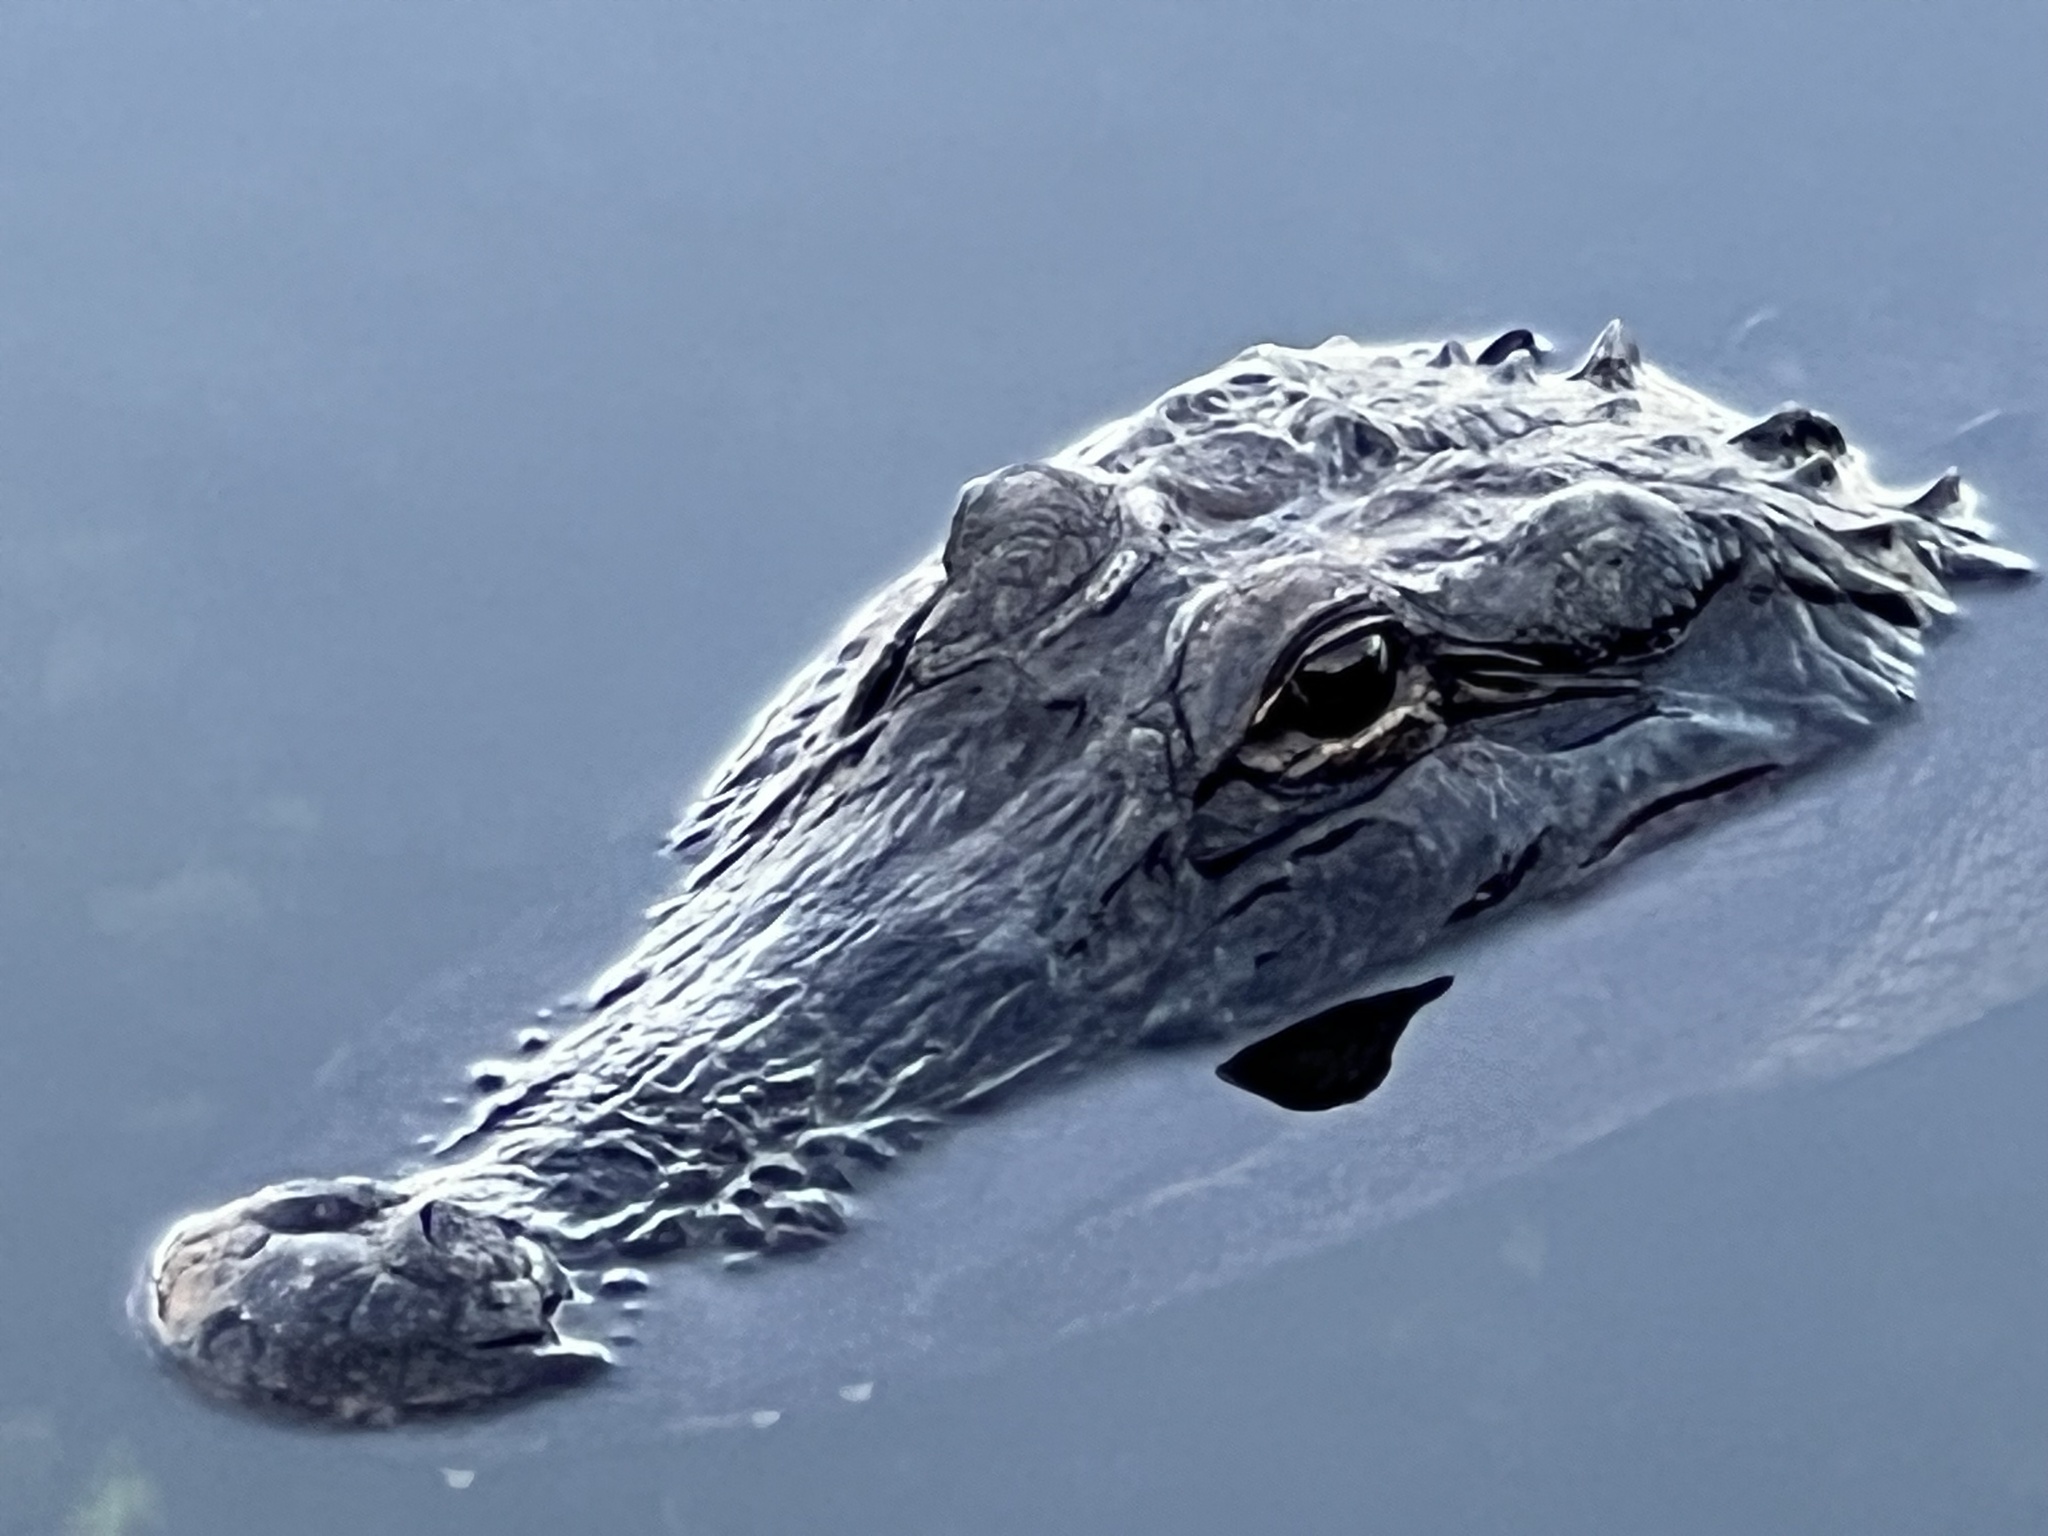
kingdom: Animalia
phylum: Chordata
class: Crocodylia
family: Alligatoridae
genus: Alligator
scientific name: Alligator mississippiensis
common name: American alligator
